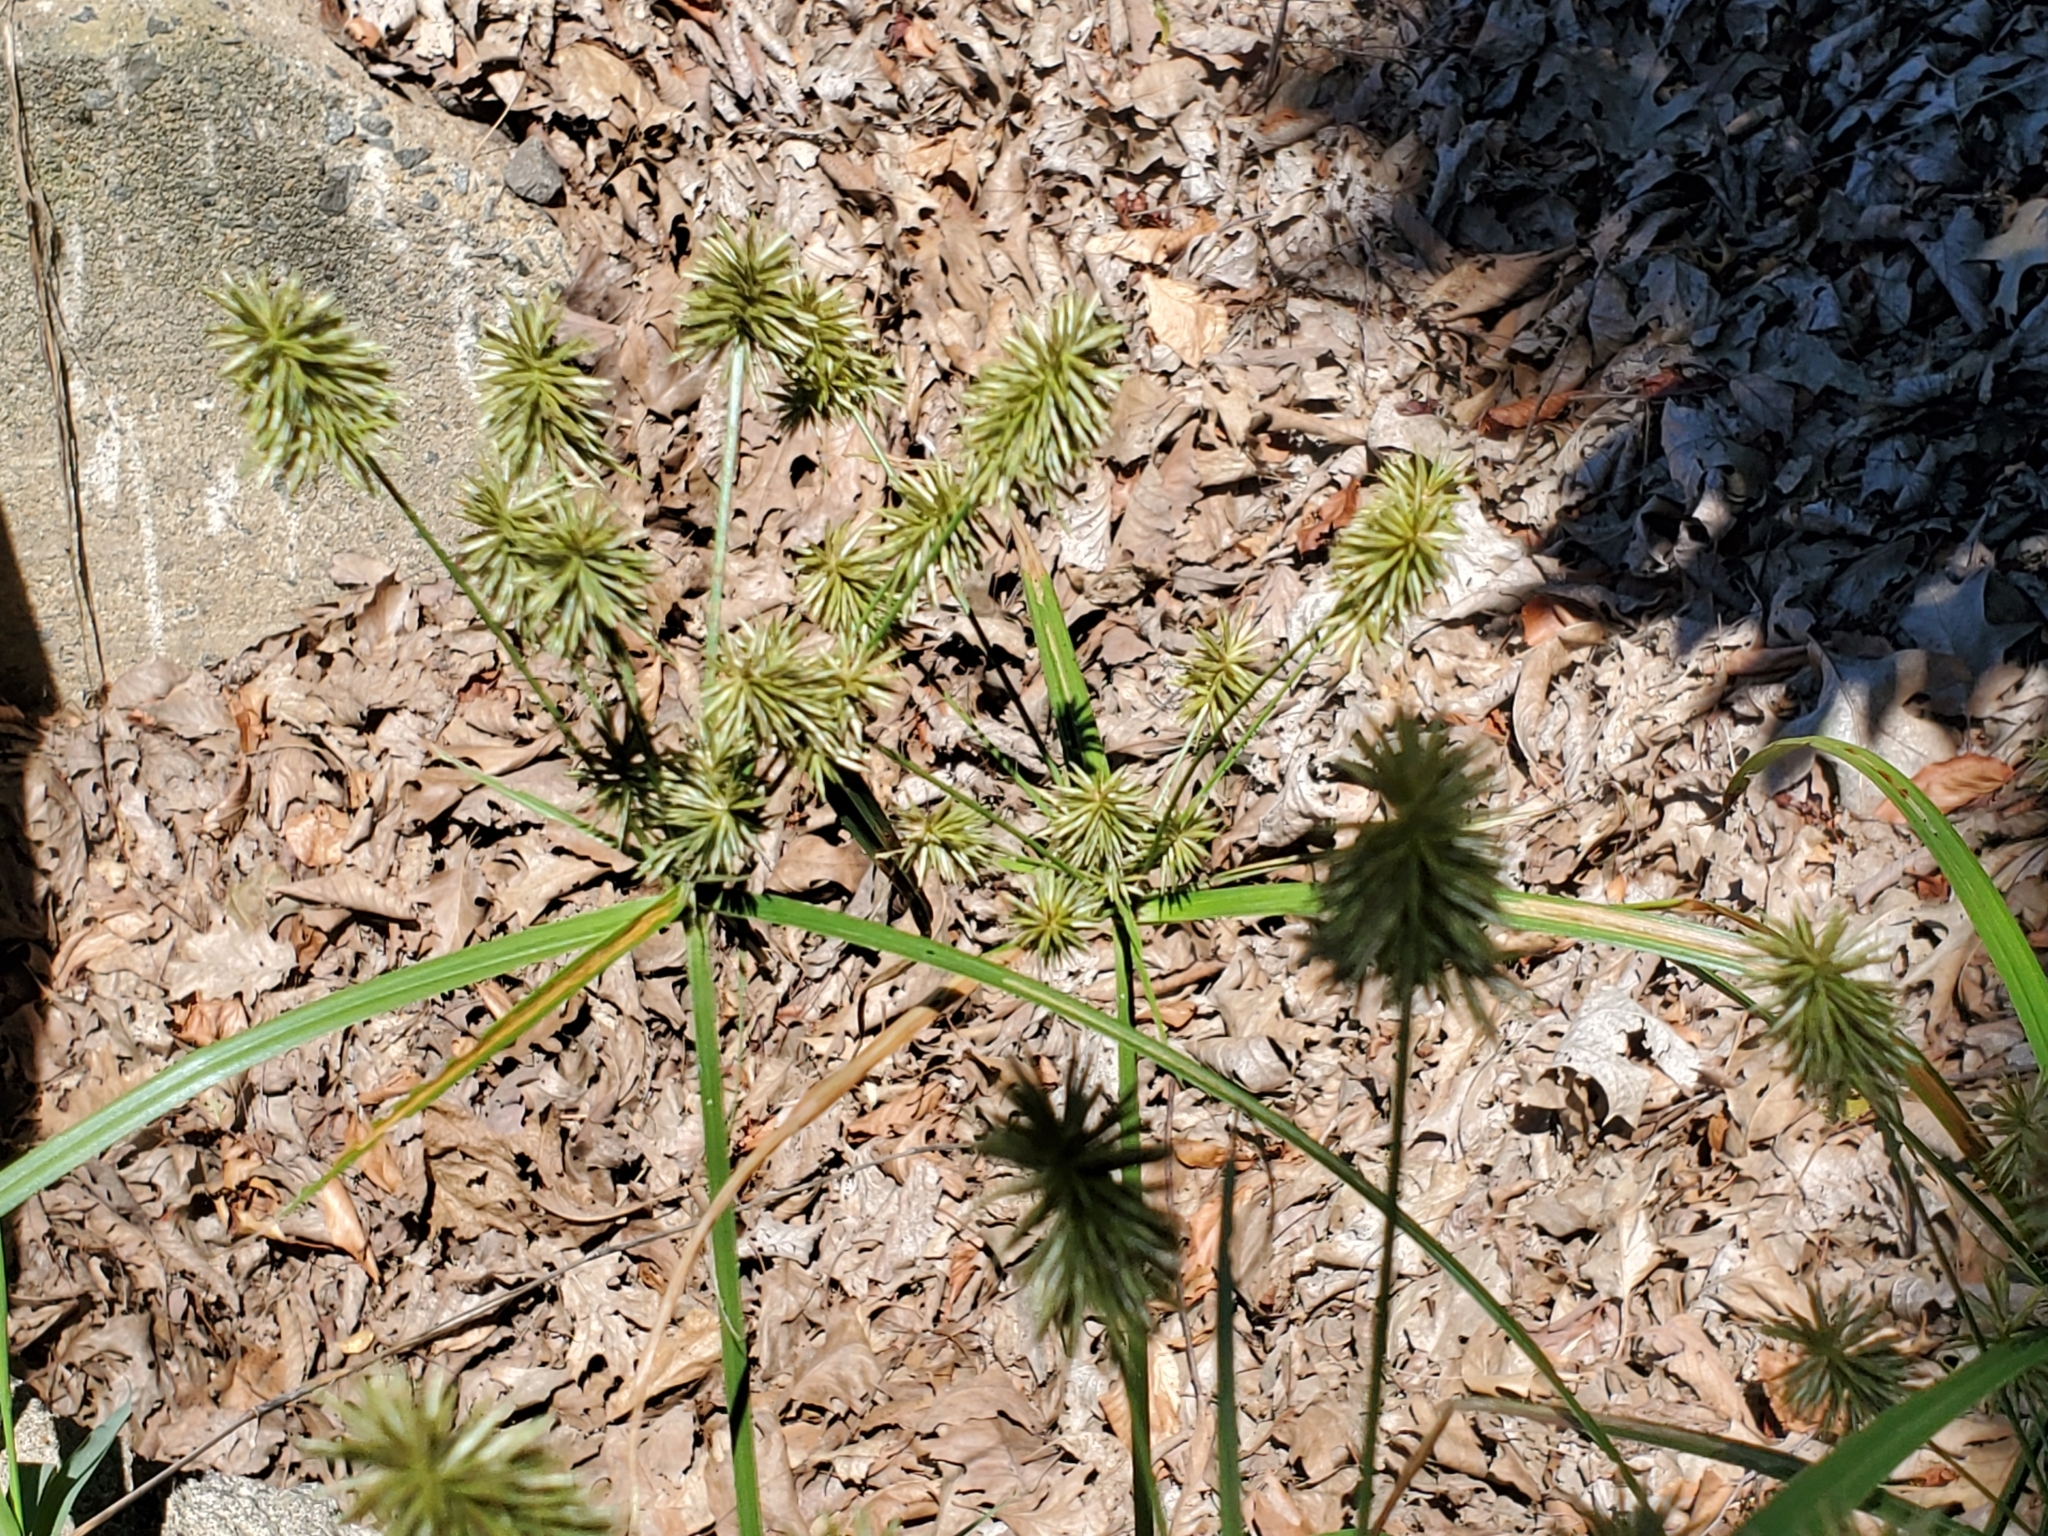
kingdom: Plantae
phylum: Tracheophyta
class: Liliopsida
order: Poales
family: Cyperaceae
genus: Cyperus
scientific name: Cyperus lancastriensis
